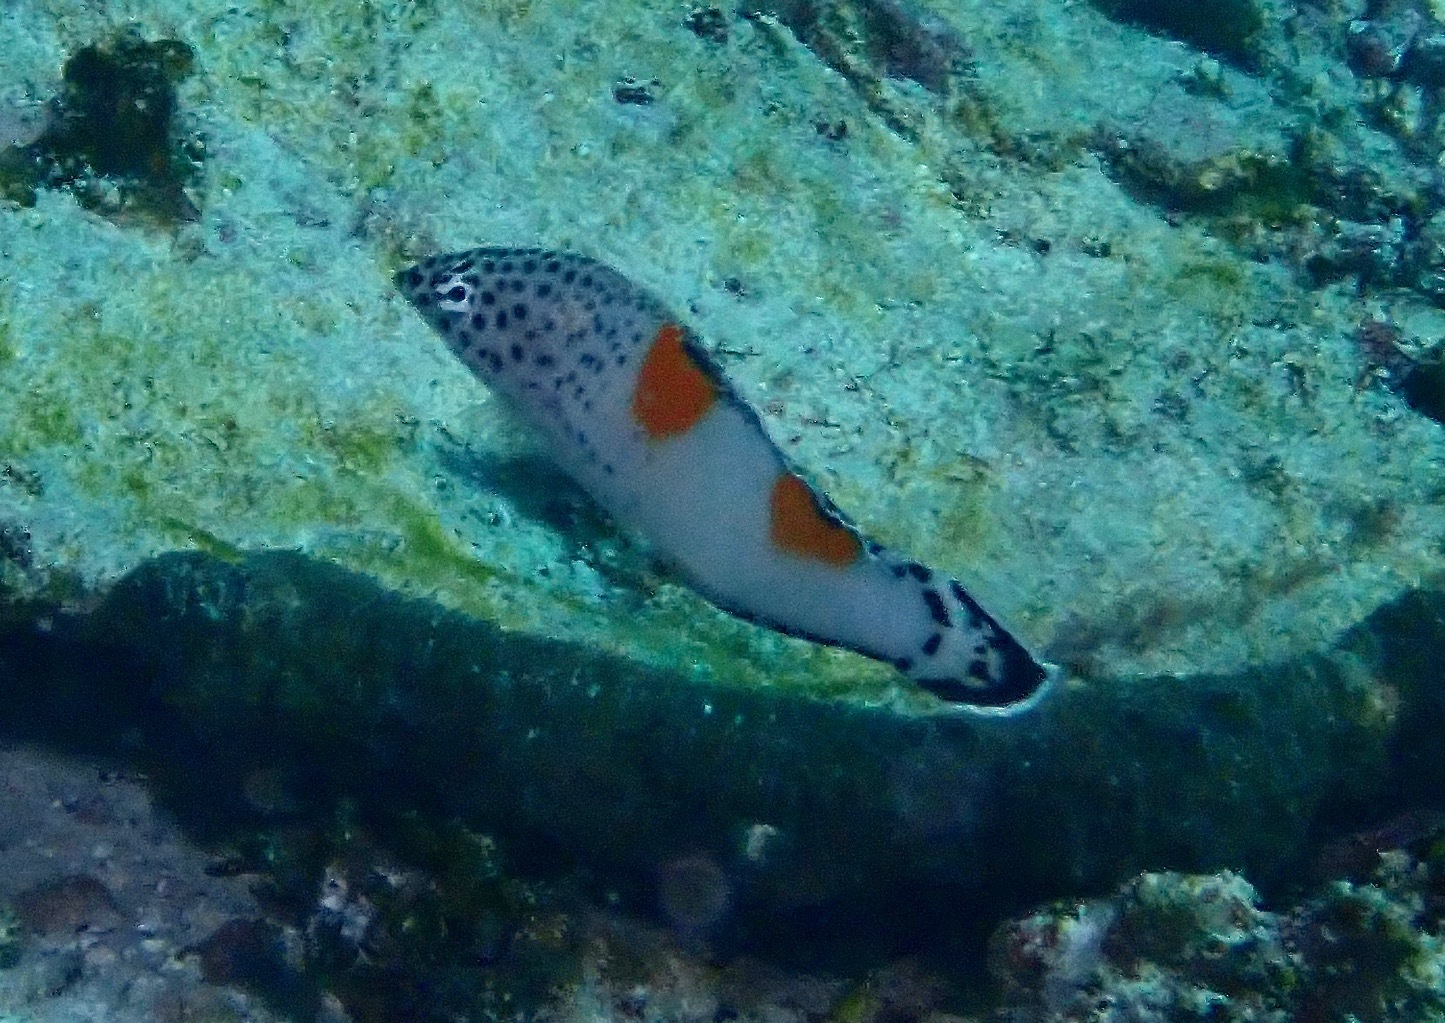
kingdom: Animalia
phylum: Chordata
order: Perciformes
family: Labridae
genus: Coris
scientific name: Coris aygula
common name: Clown coris
